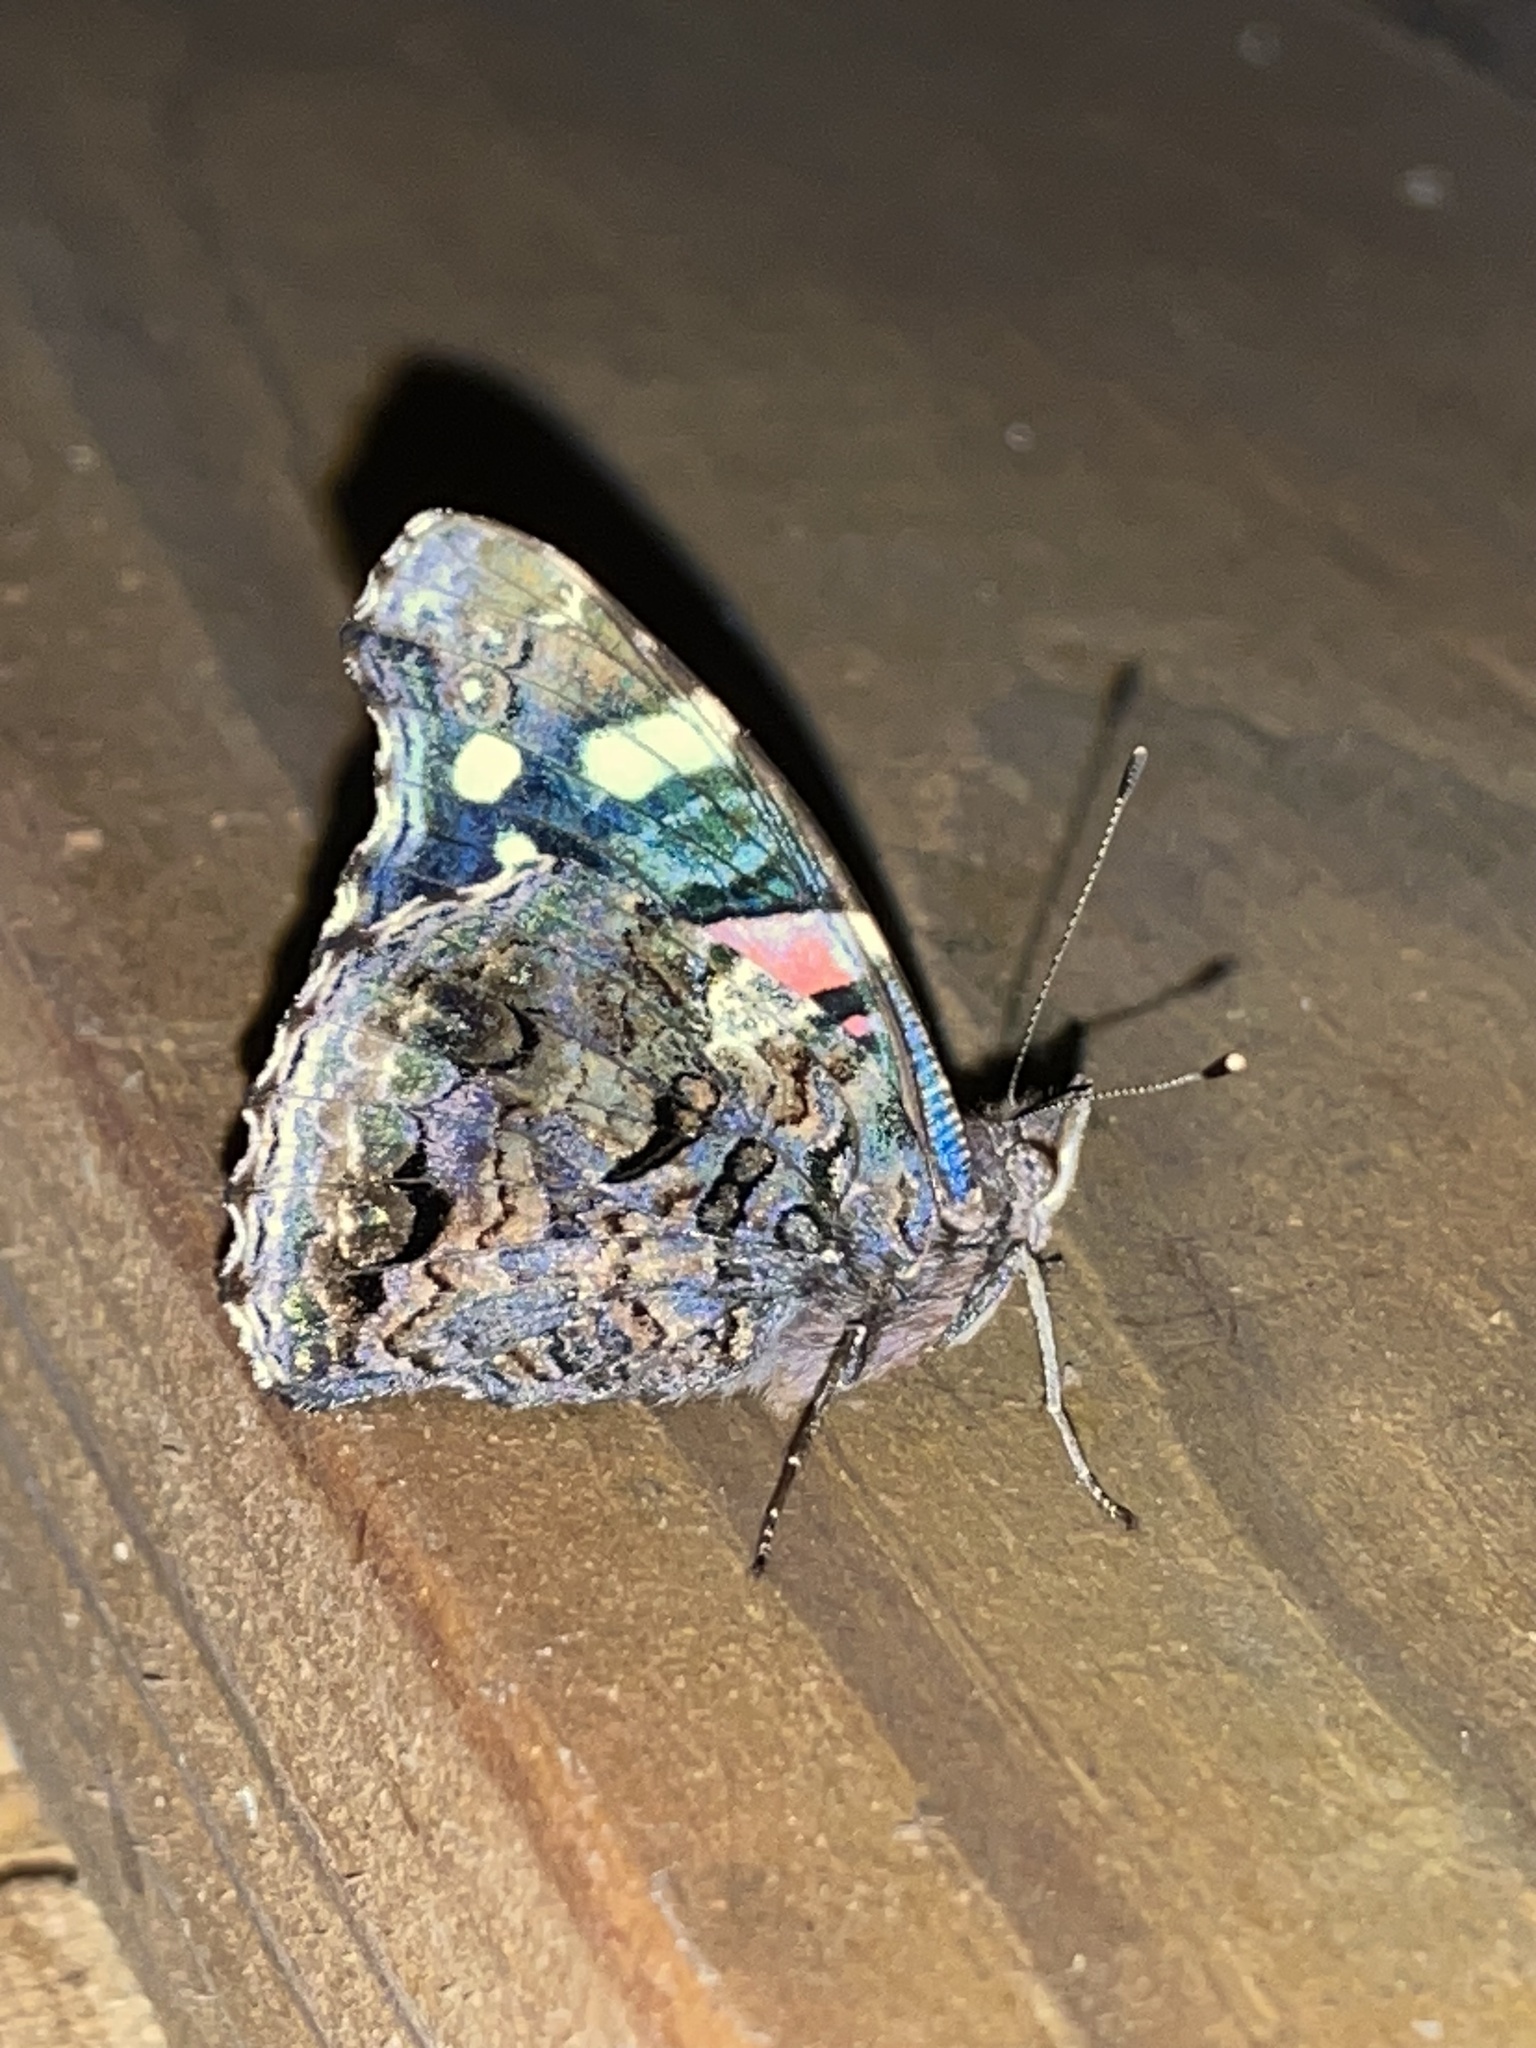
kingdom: Animalia
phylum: Arthropoda
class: Insecta
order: Lepidoptera
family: Nymphalidae
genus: Vanessa
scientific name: Vanessa atalanta
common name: Red admiral
